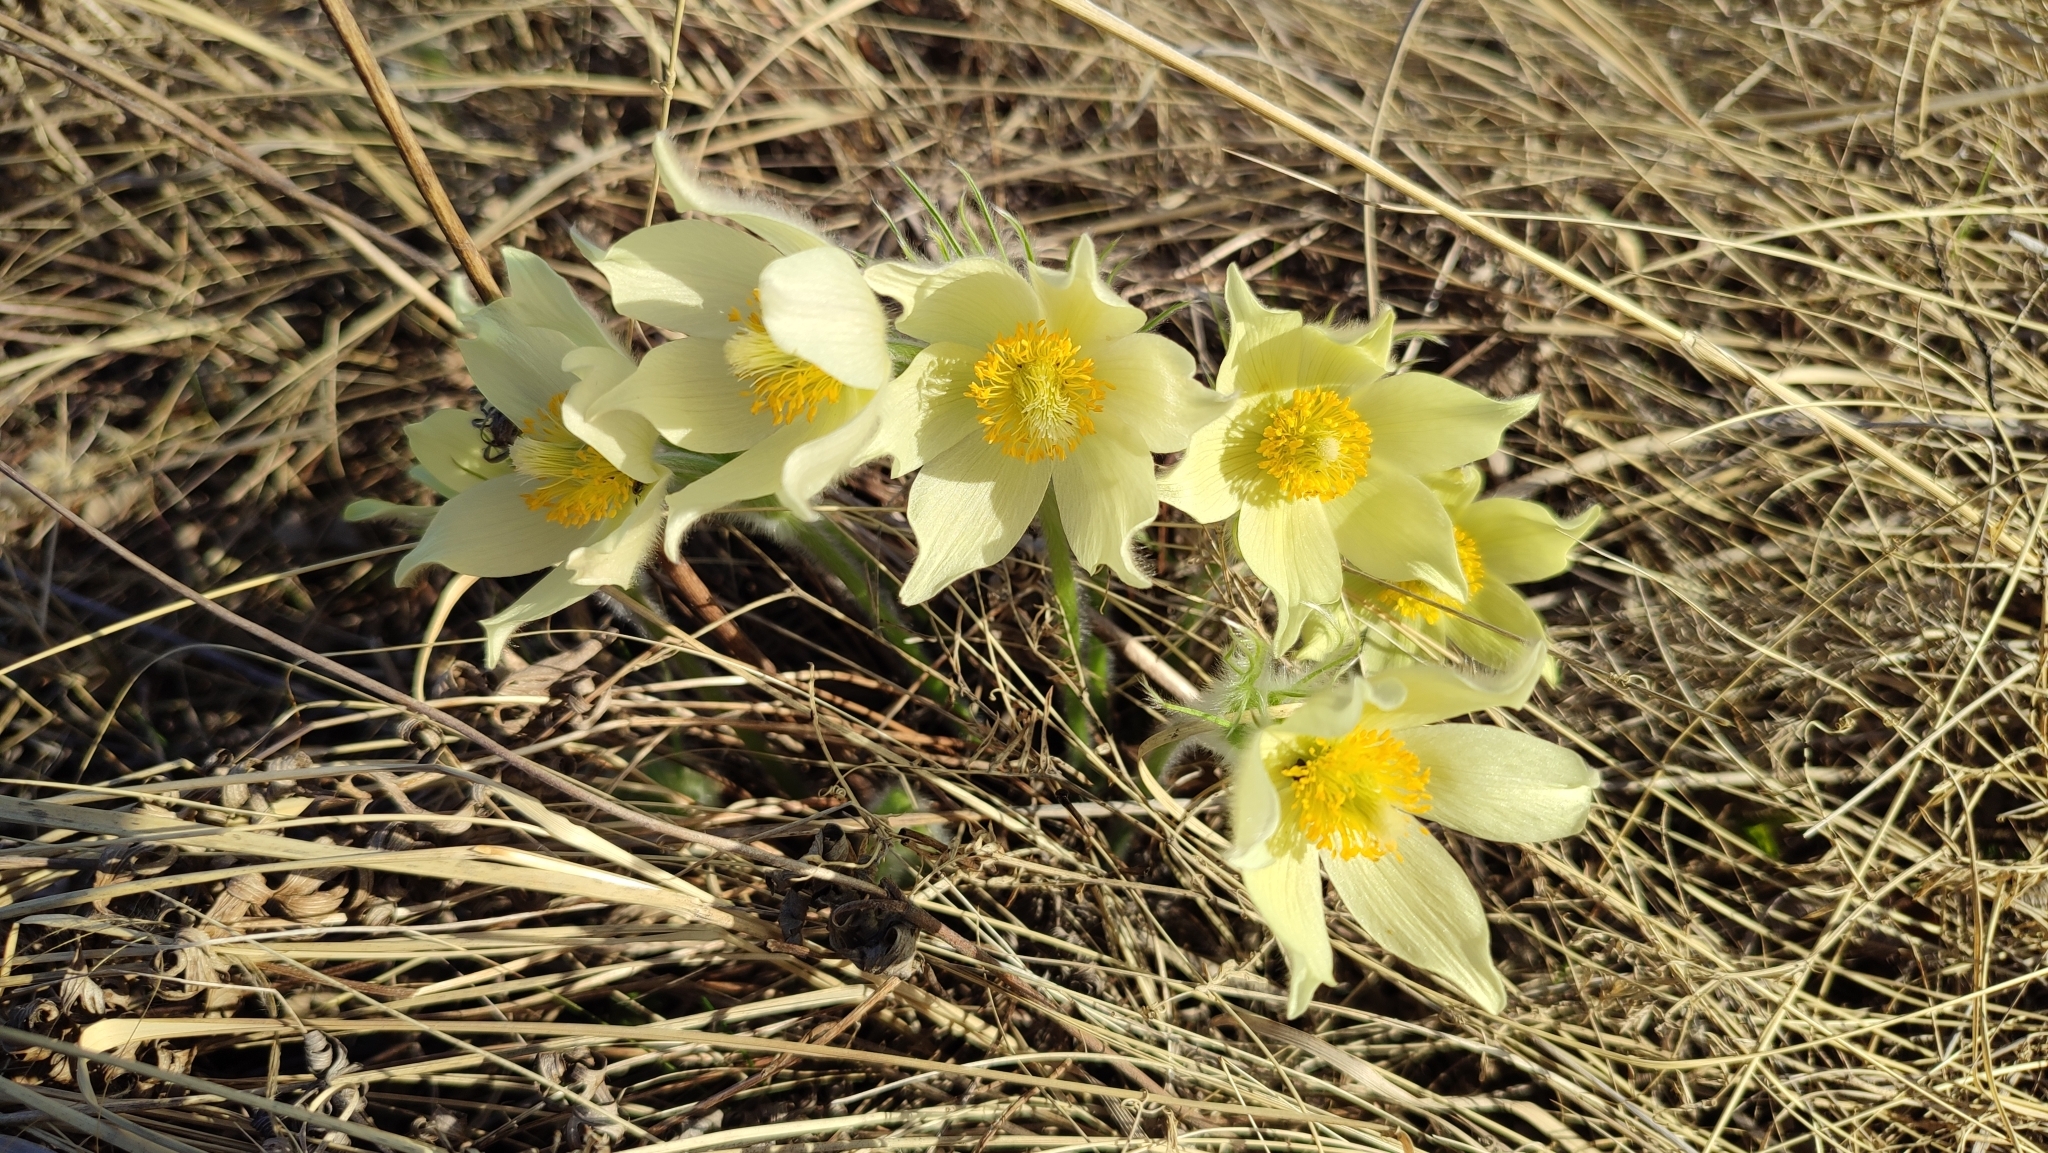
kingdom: Plantae
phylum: Tracheophyta
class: Magnoliopsida
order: Ranunculales
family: Ranunculaceae
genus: Pulsatilla
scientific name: Pulsatilla patens
